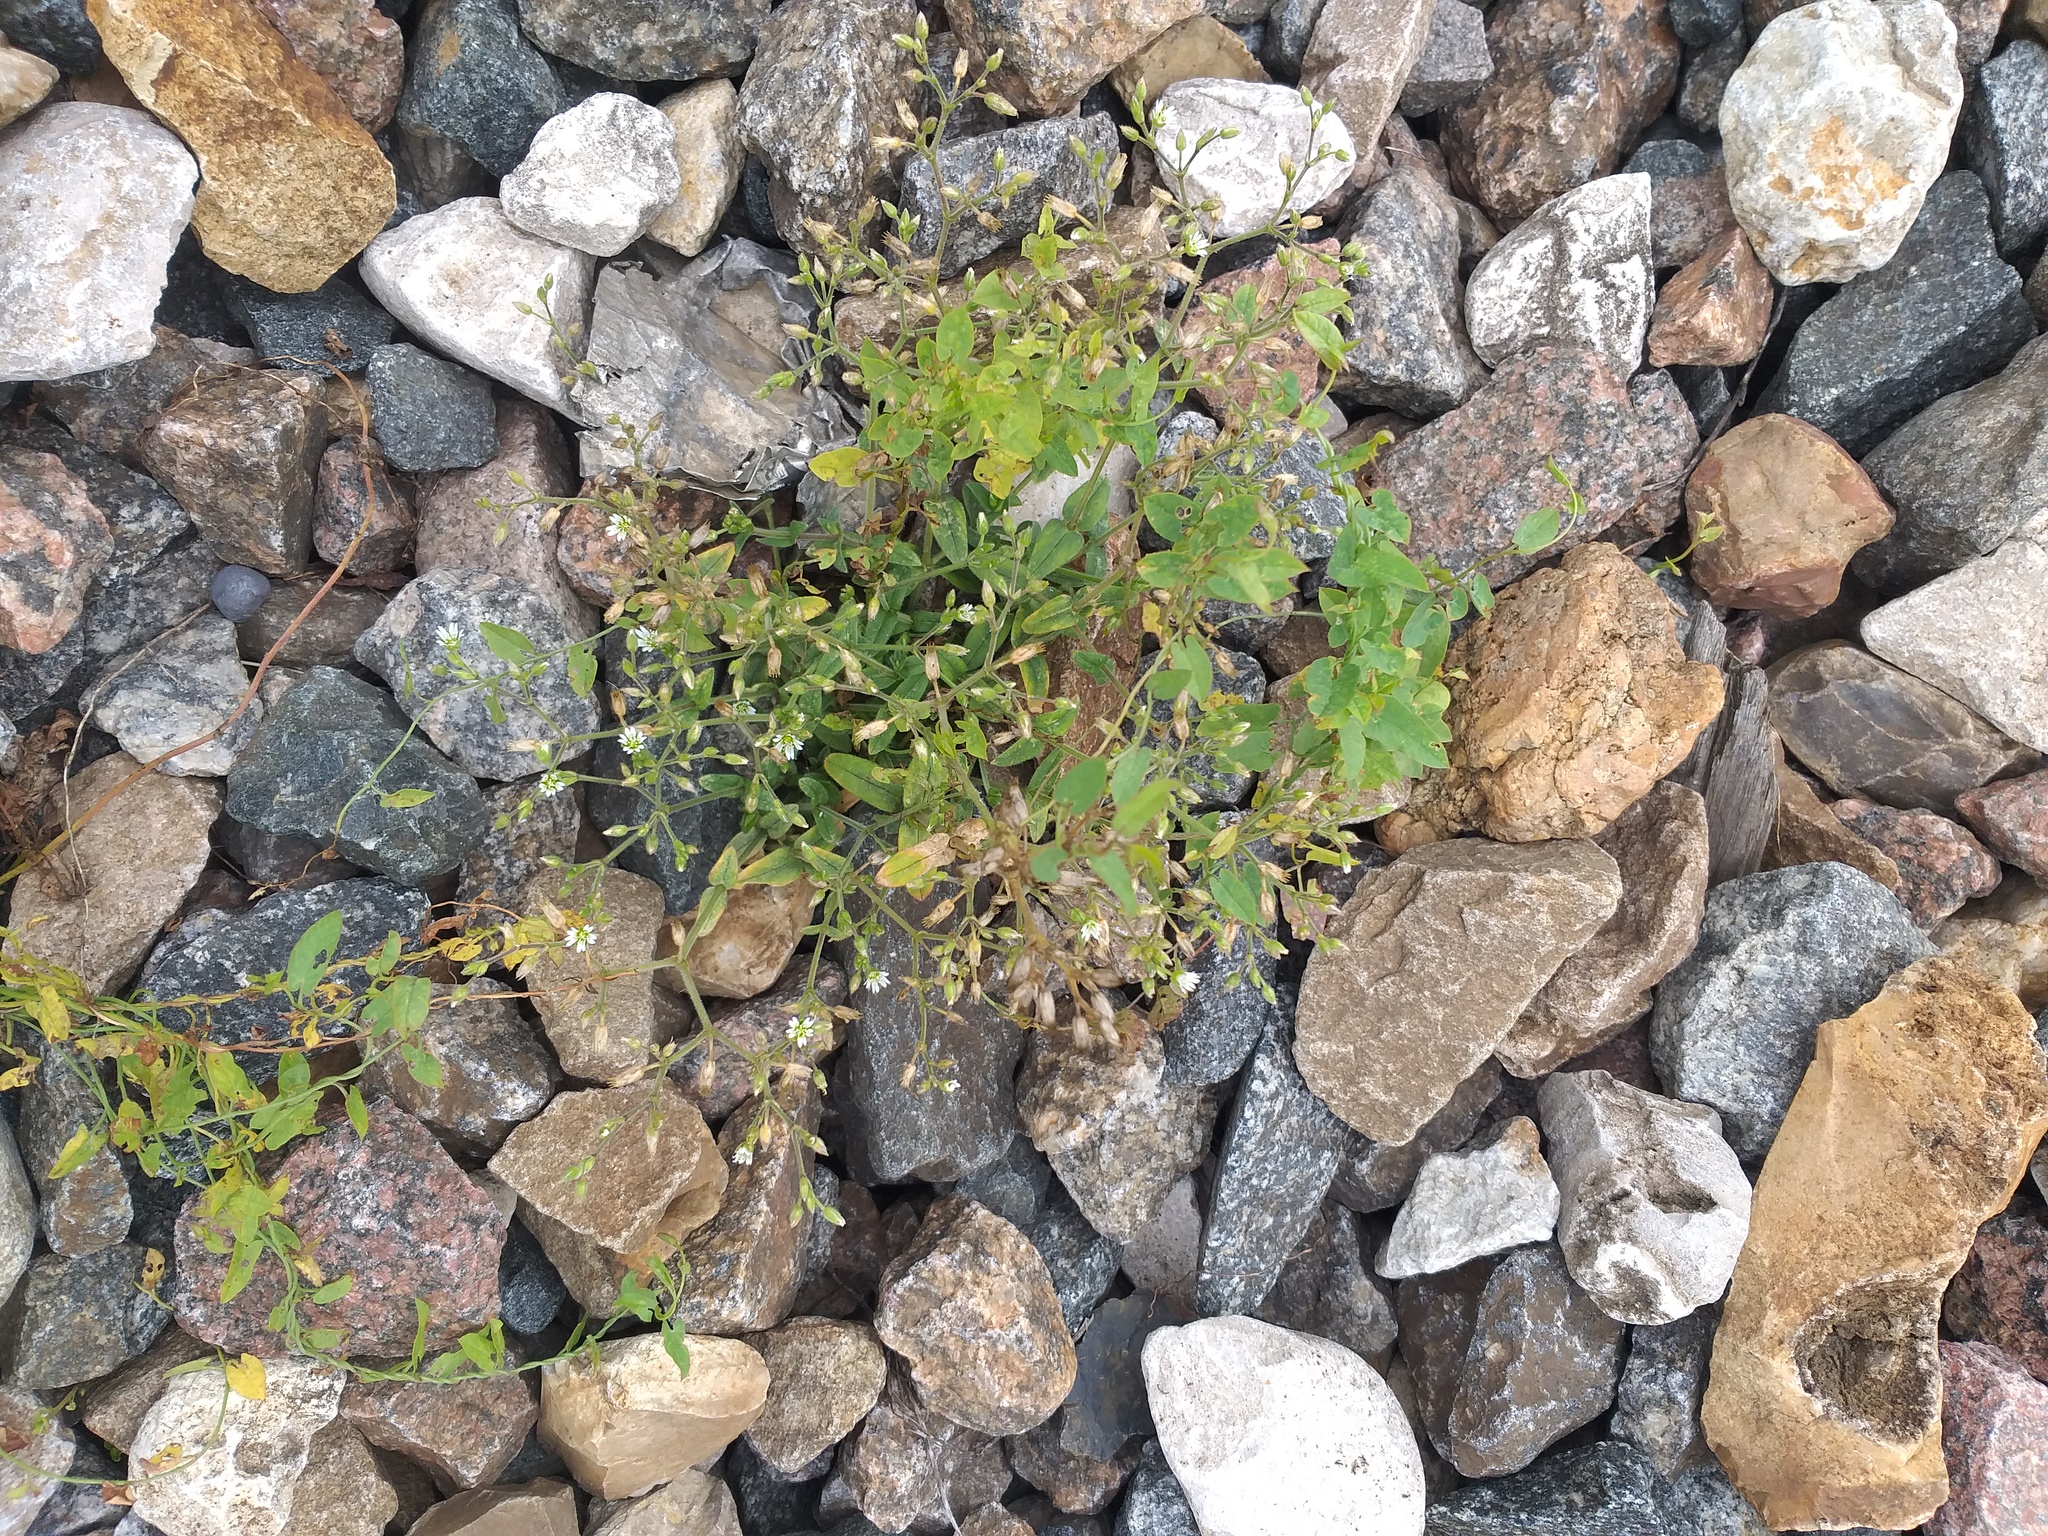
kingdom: Plantae
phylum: Tracheophyta
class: Magnoliopsida
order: Caryophyllales
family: Caryophyllaceae
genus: Cerastium
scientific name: Cerastium holosteoides
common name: Big chickweed
